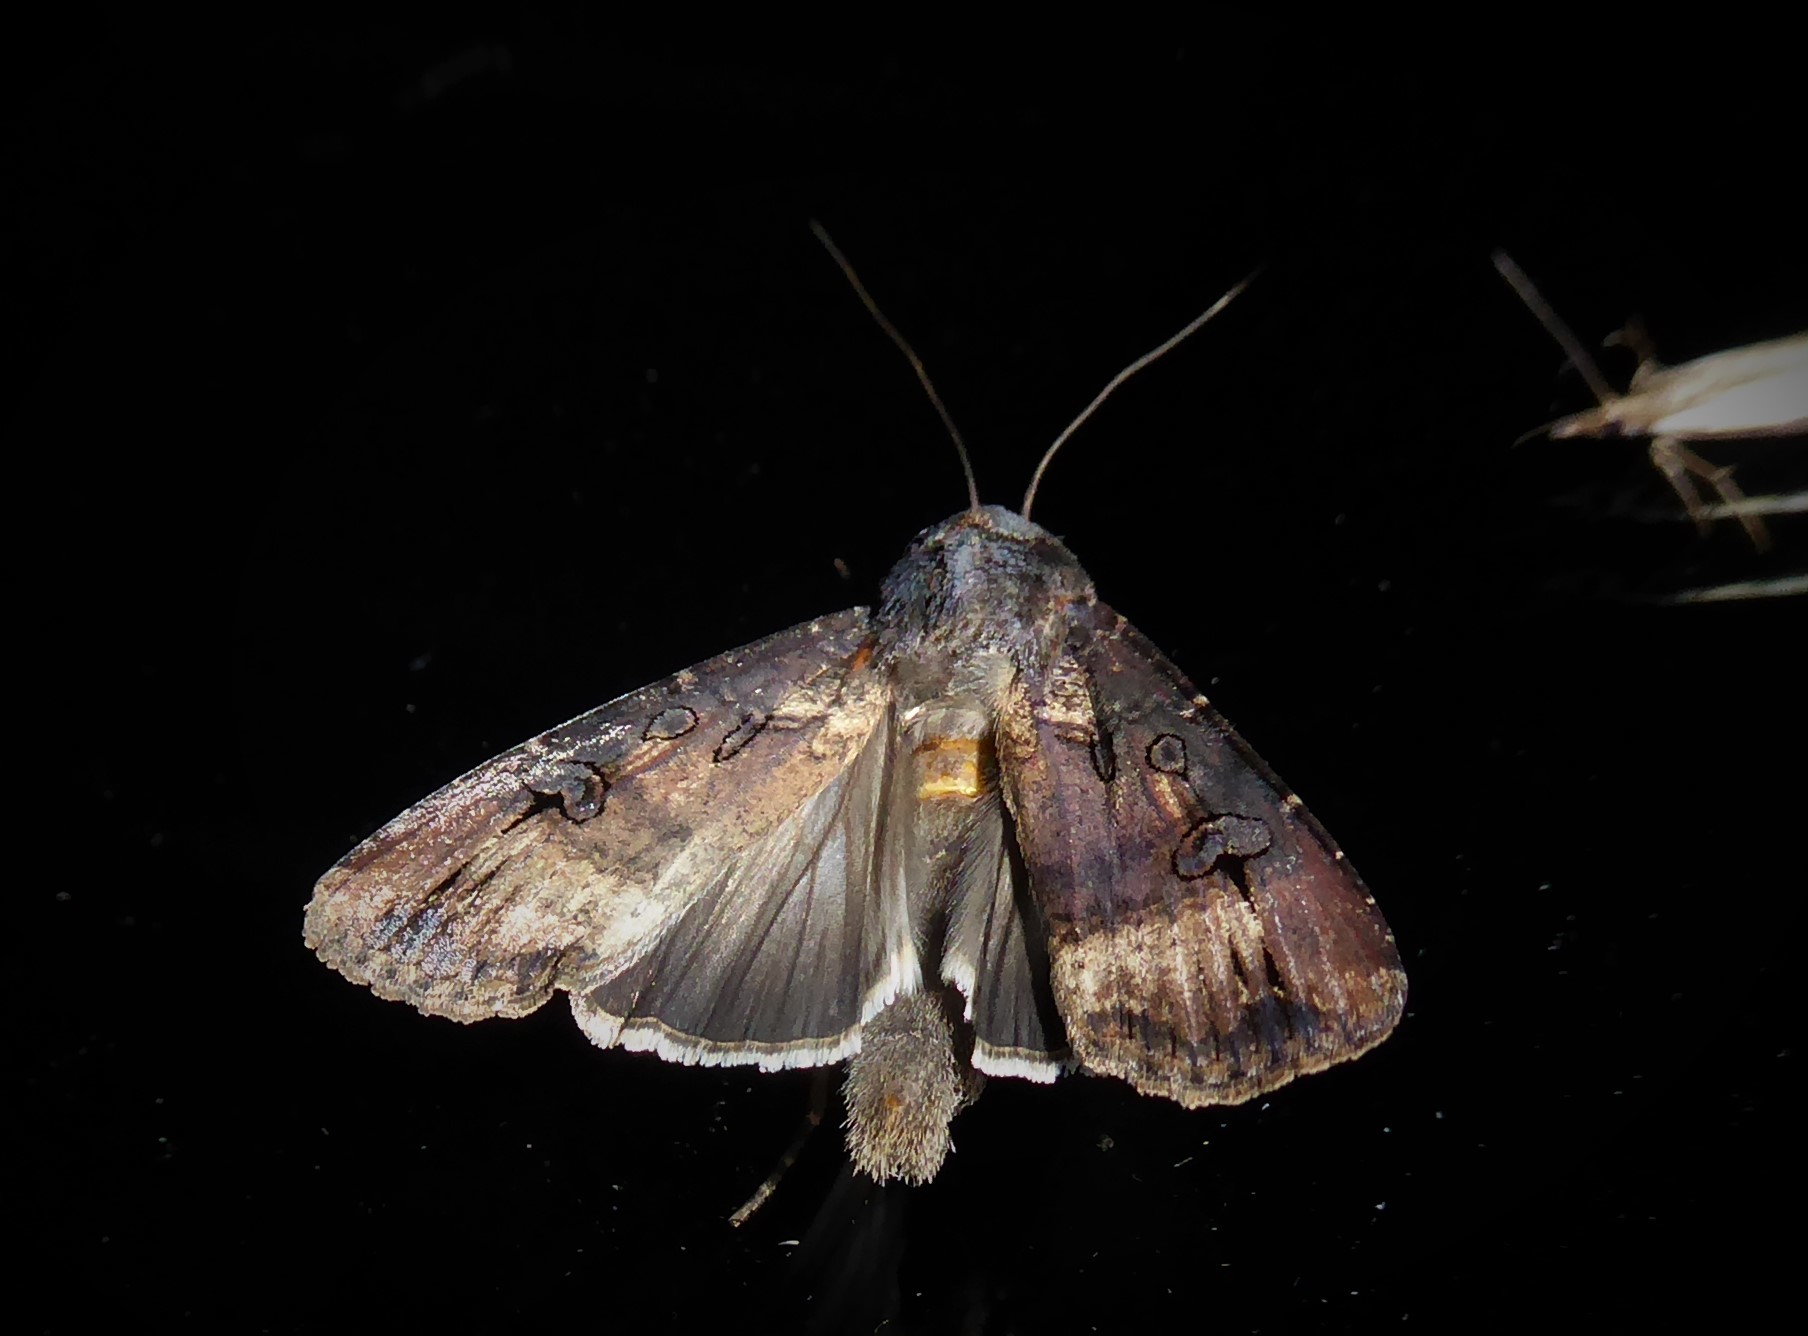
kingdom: Animalia
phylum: Arthropoda
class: Insecta
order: Lepidoptera
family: Noctuidae
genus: Agrotis
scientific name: Agrotis ipsilon
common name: Dark sword-grass
